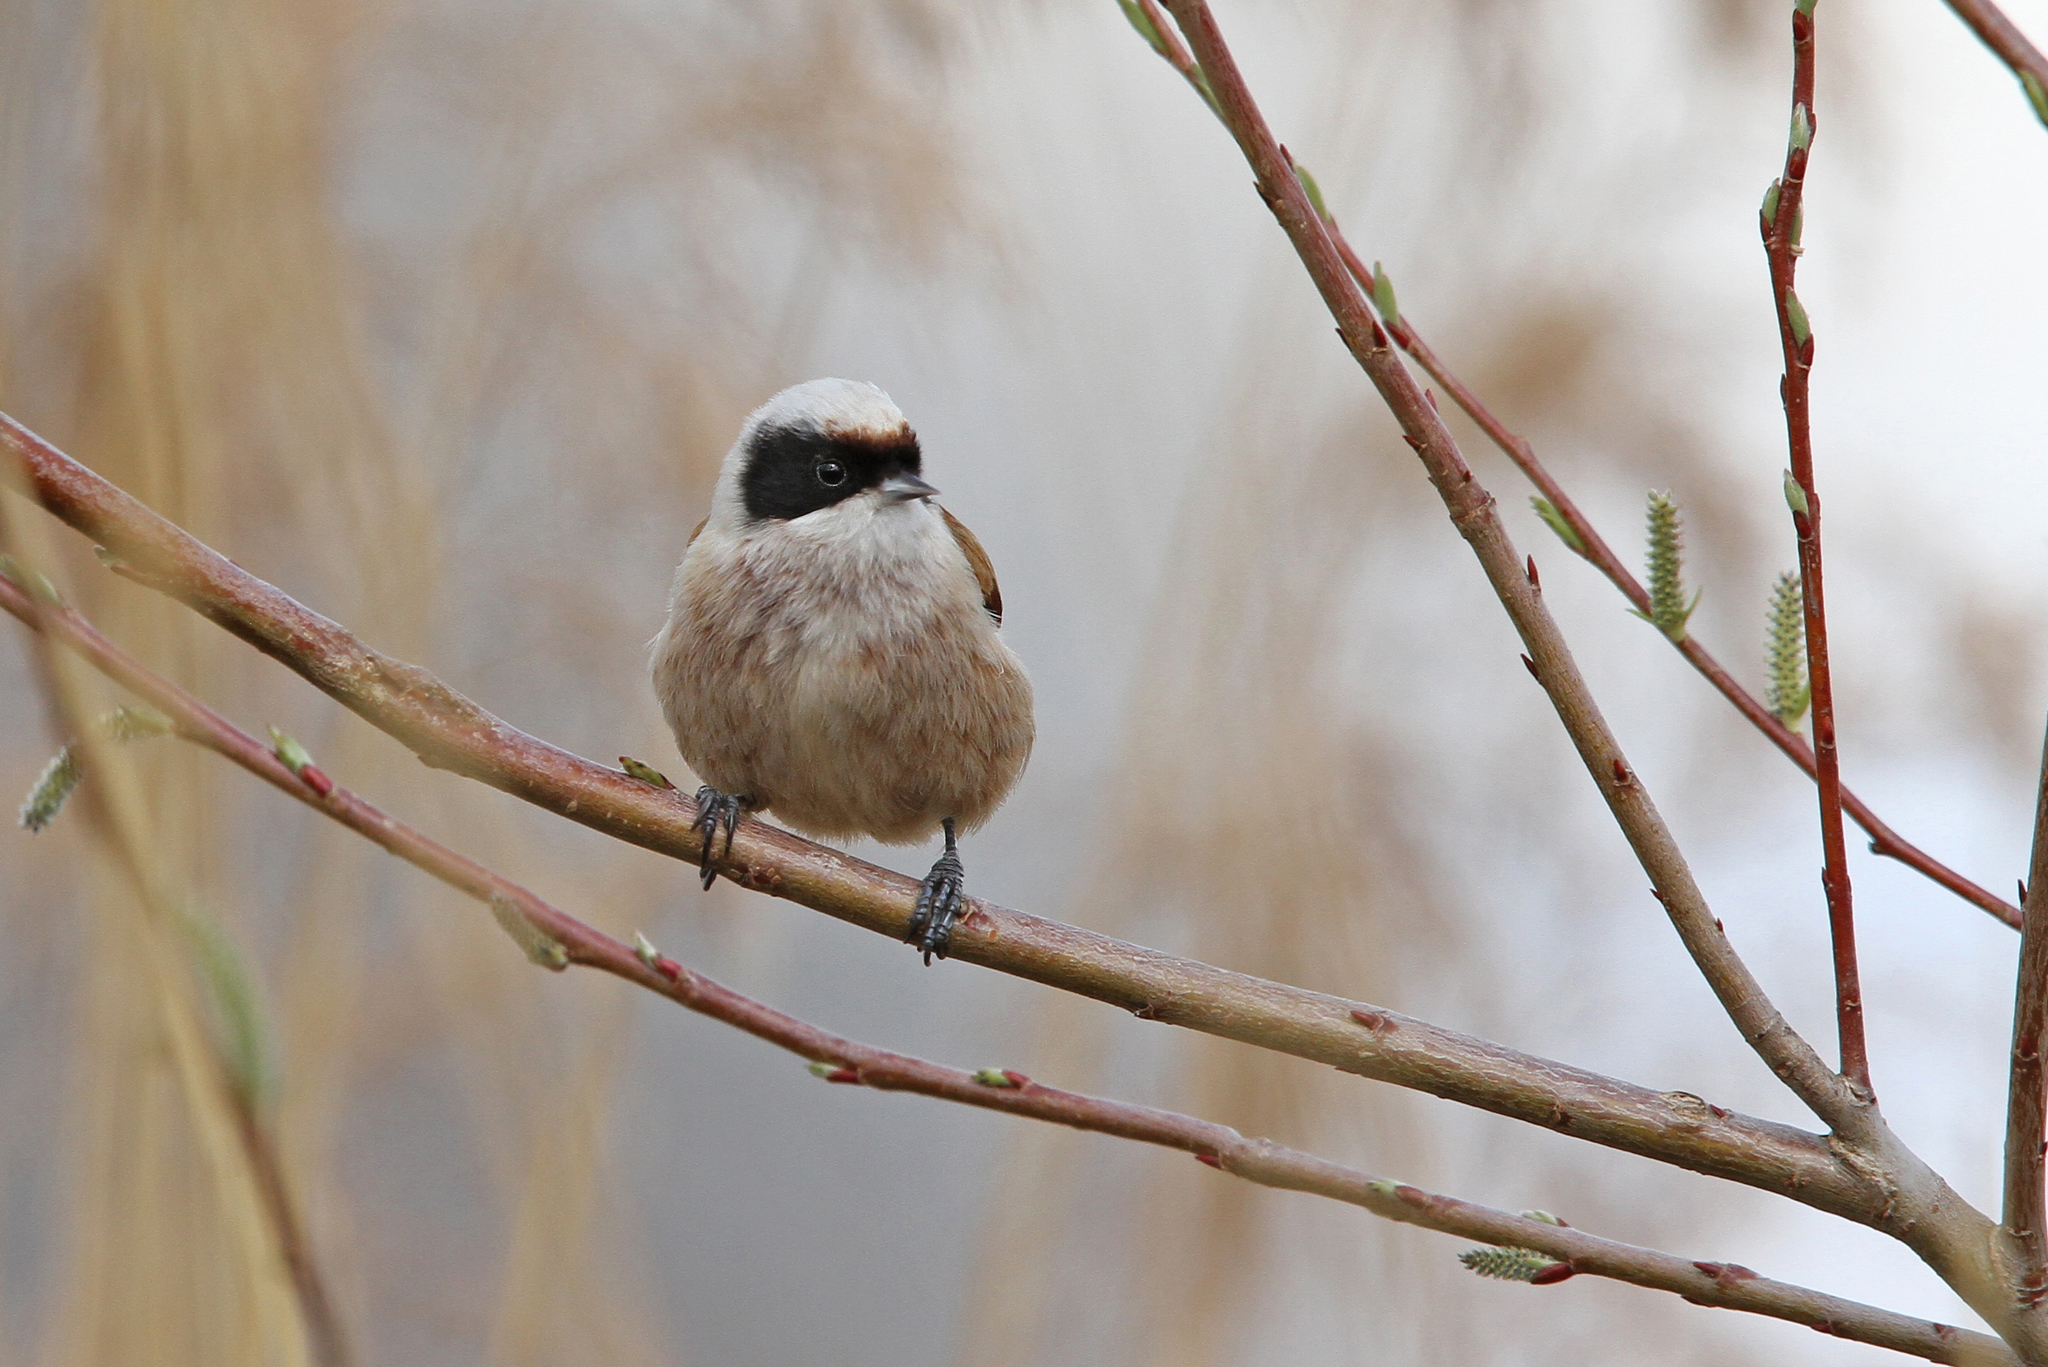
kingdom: Animalia
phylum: Chordata
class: Aves
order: Passeriformes
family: Remizidae
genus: Remiz
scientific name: Remiz pendulinus
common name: Eurasian penduline tit
